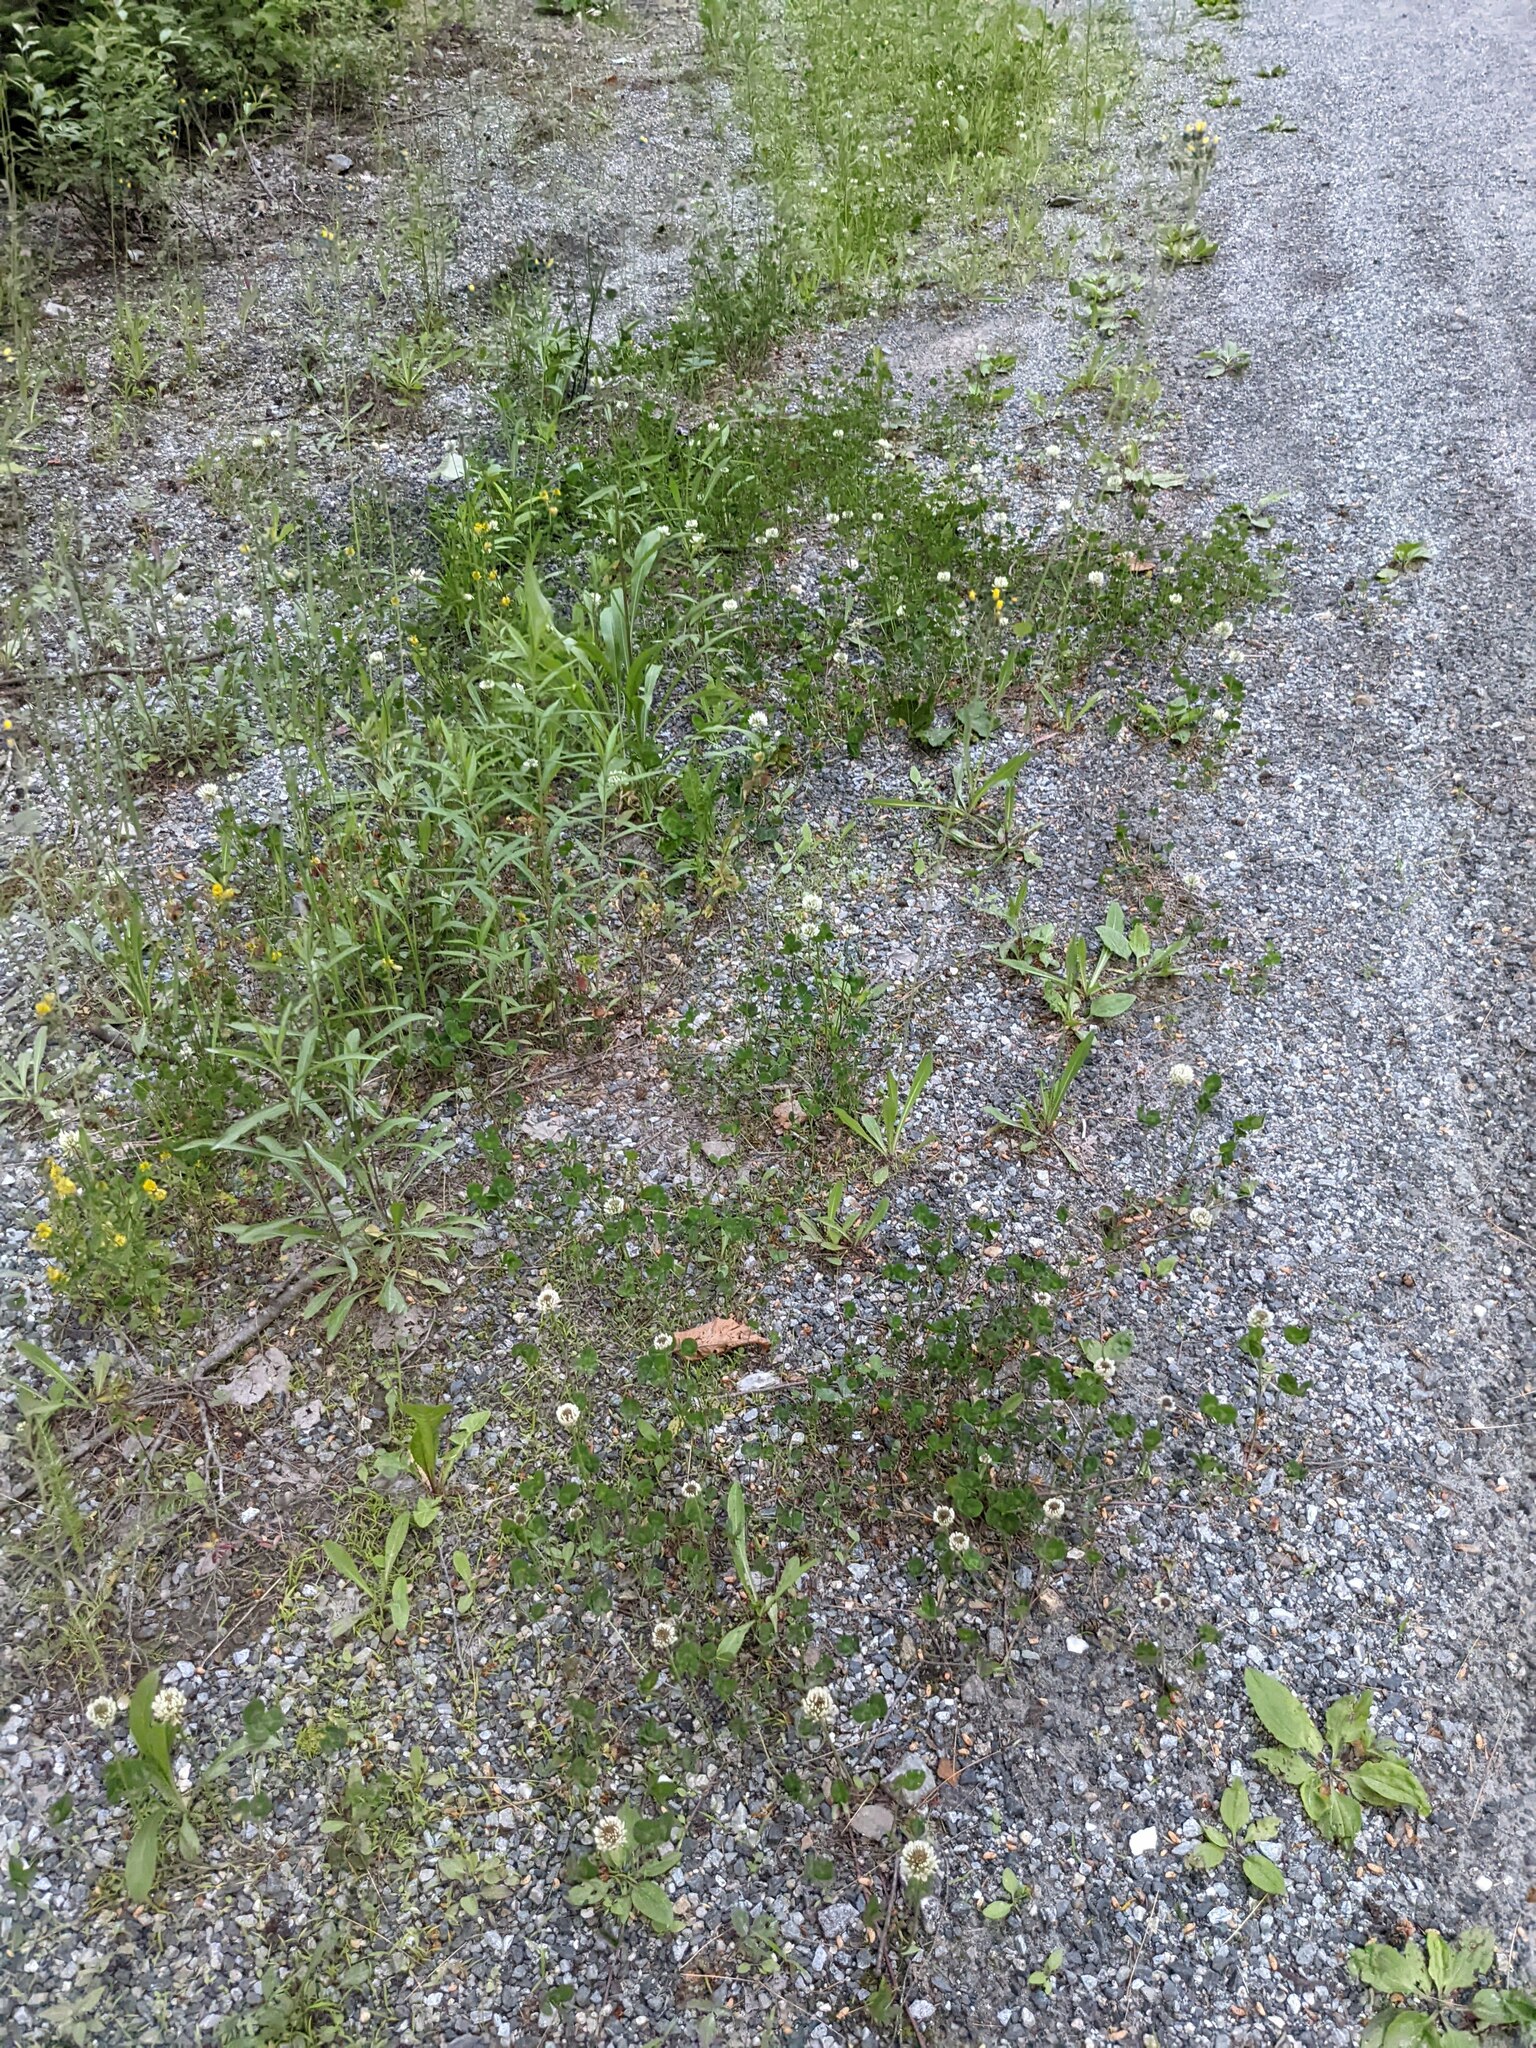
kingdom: Plantae
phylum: Tracheophyta
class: Magnoliopsida
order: Fabales
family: Fabaceae
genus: Trifolium
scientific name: Trifolium repens
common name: White clover
